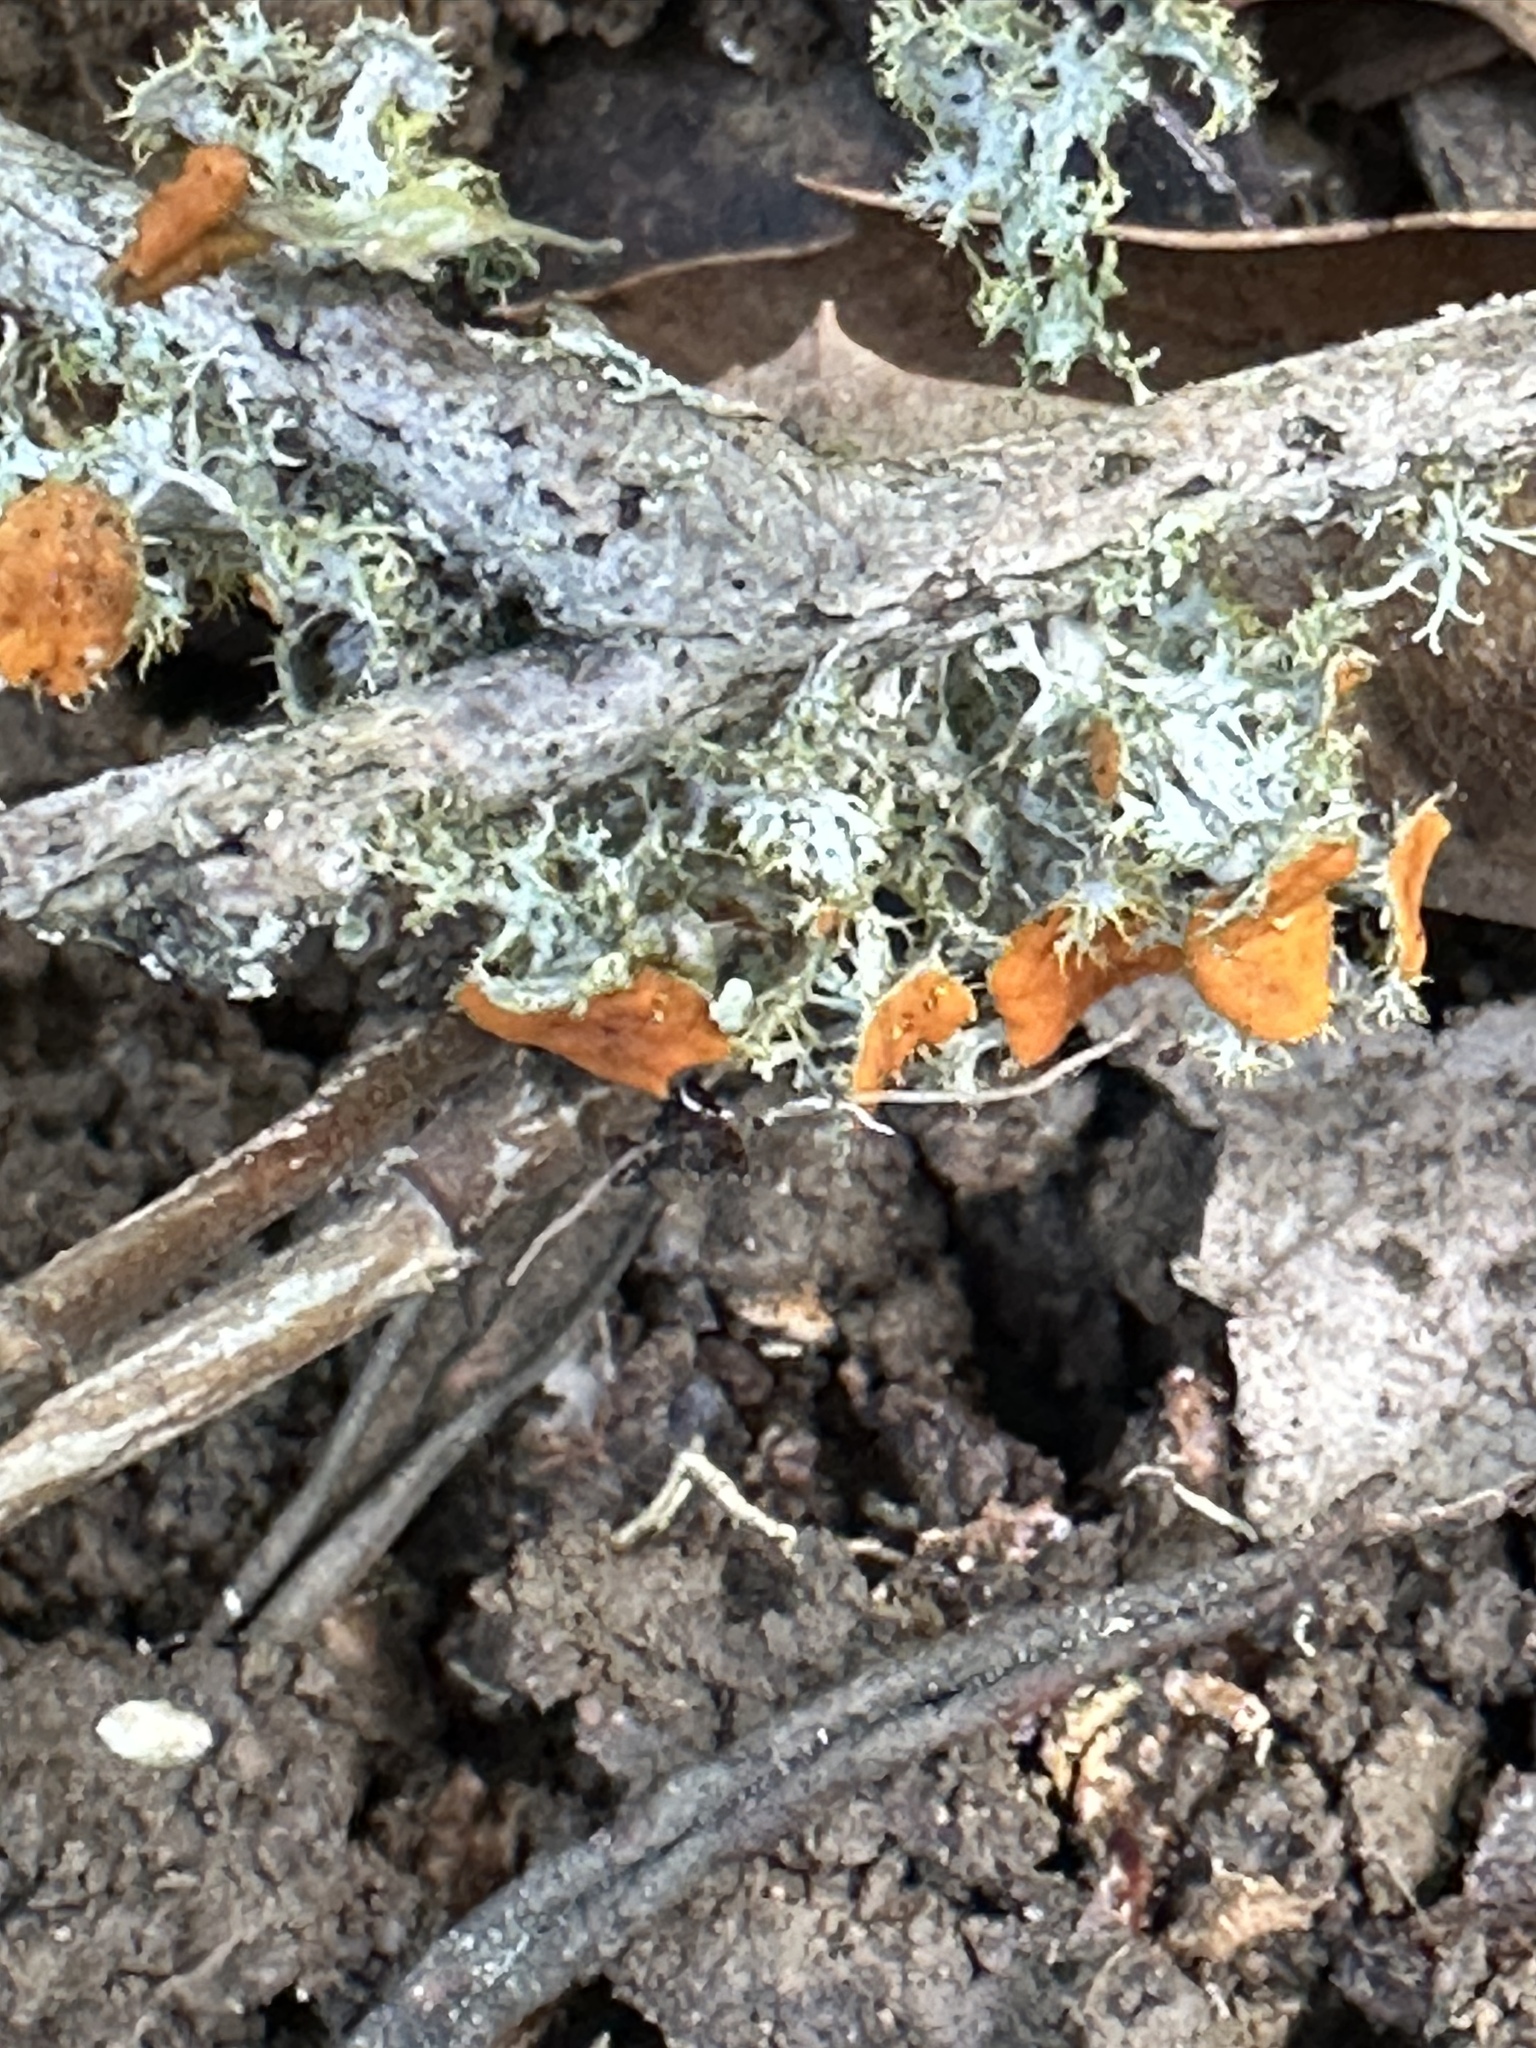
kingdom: Fungi
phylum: Ascomycota
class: Lecanoromycetes
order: Teloschistales
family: Teloschistaceae
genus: Niorma
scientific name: Niorma chrysophthalma
